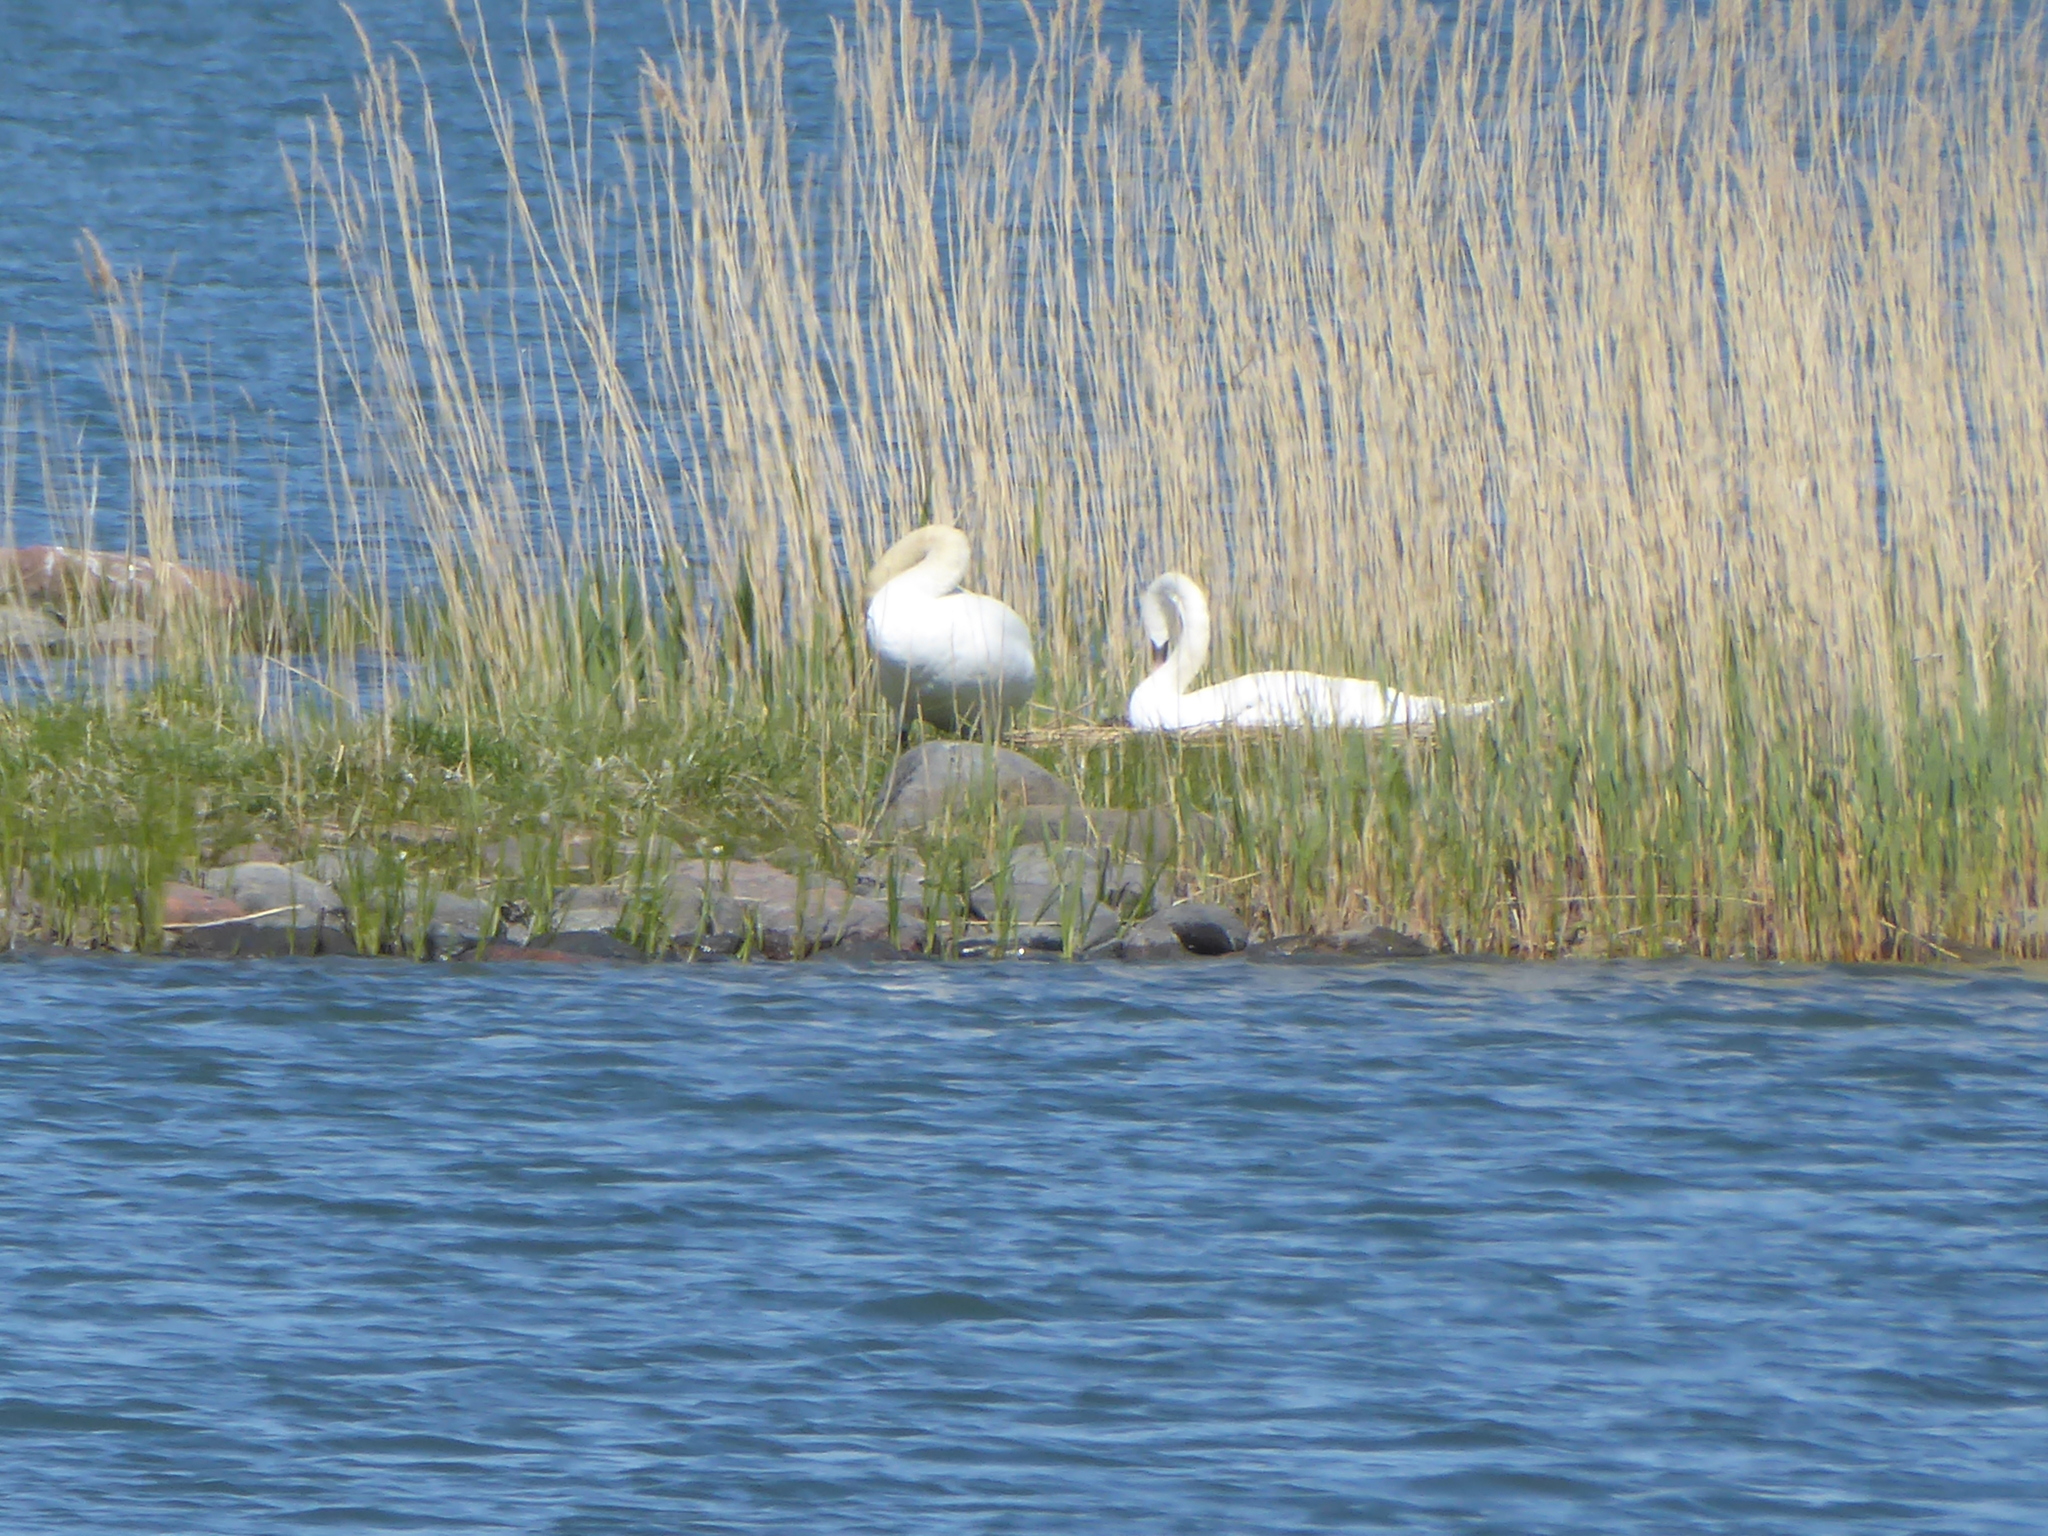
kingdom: Animalia
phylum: Chordata
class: Aves
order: Anseriformes
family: Anatidae
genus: Cygnus
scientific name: Cygnus olor
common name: Mute swan
